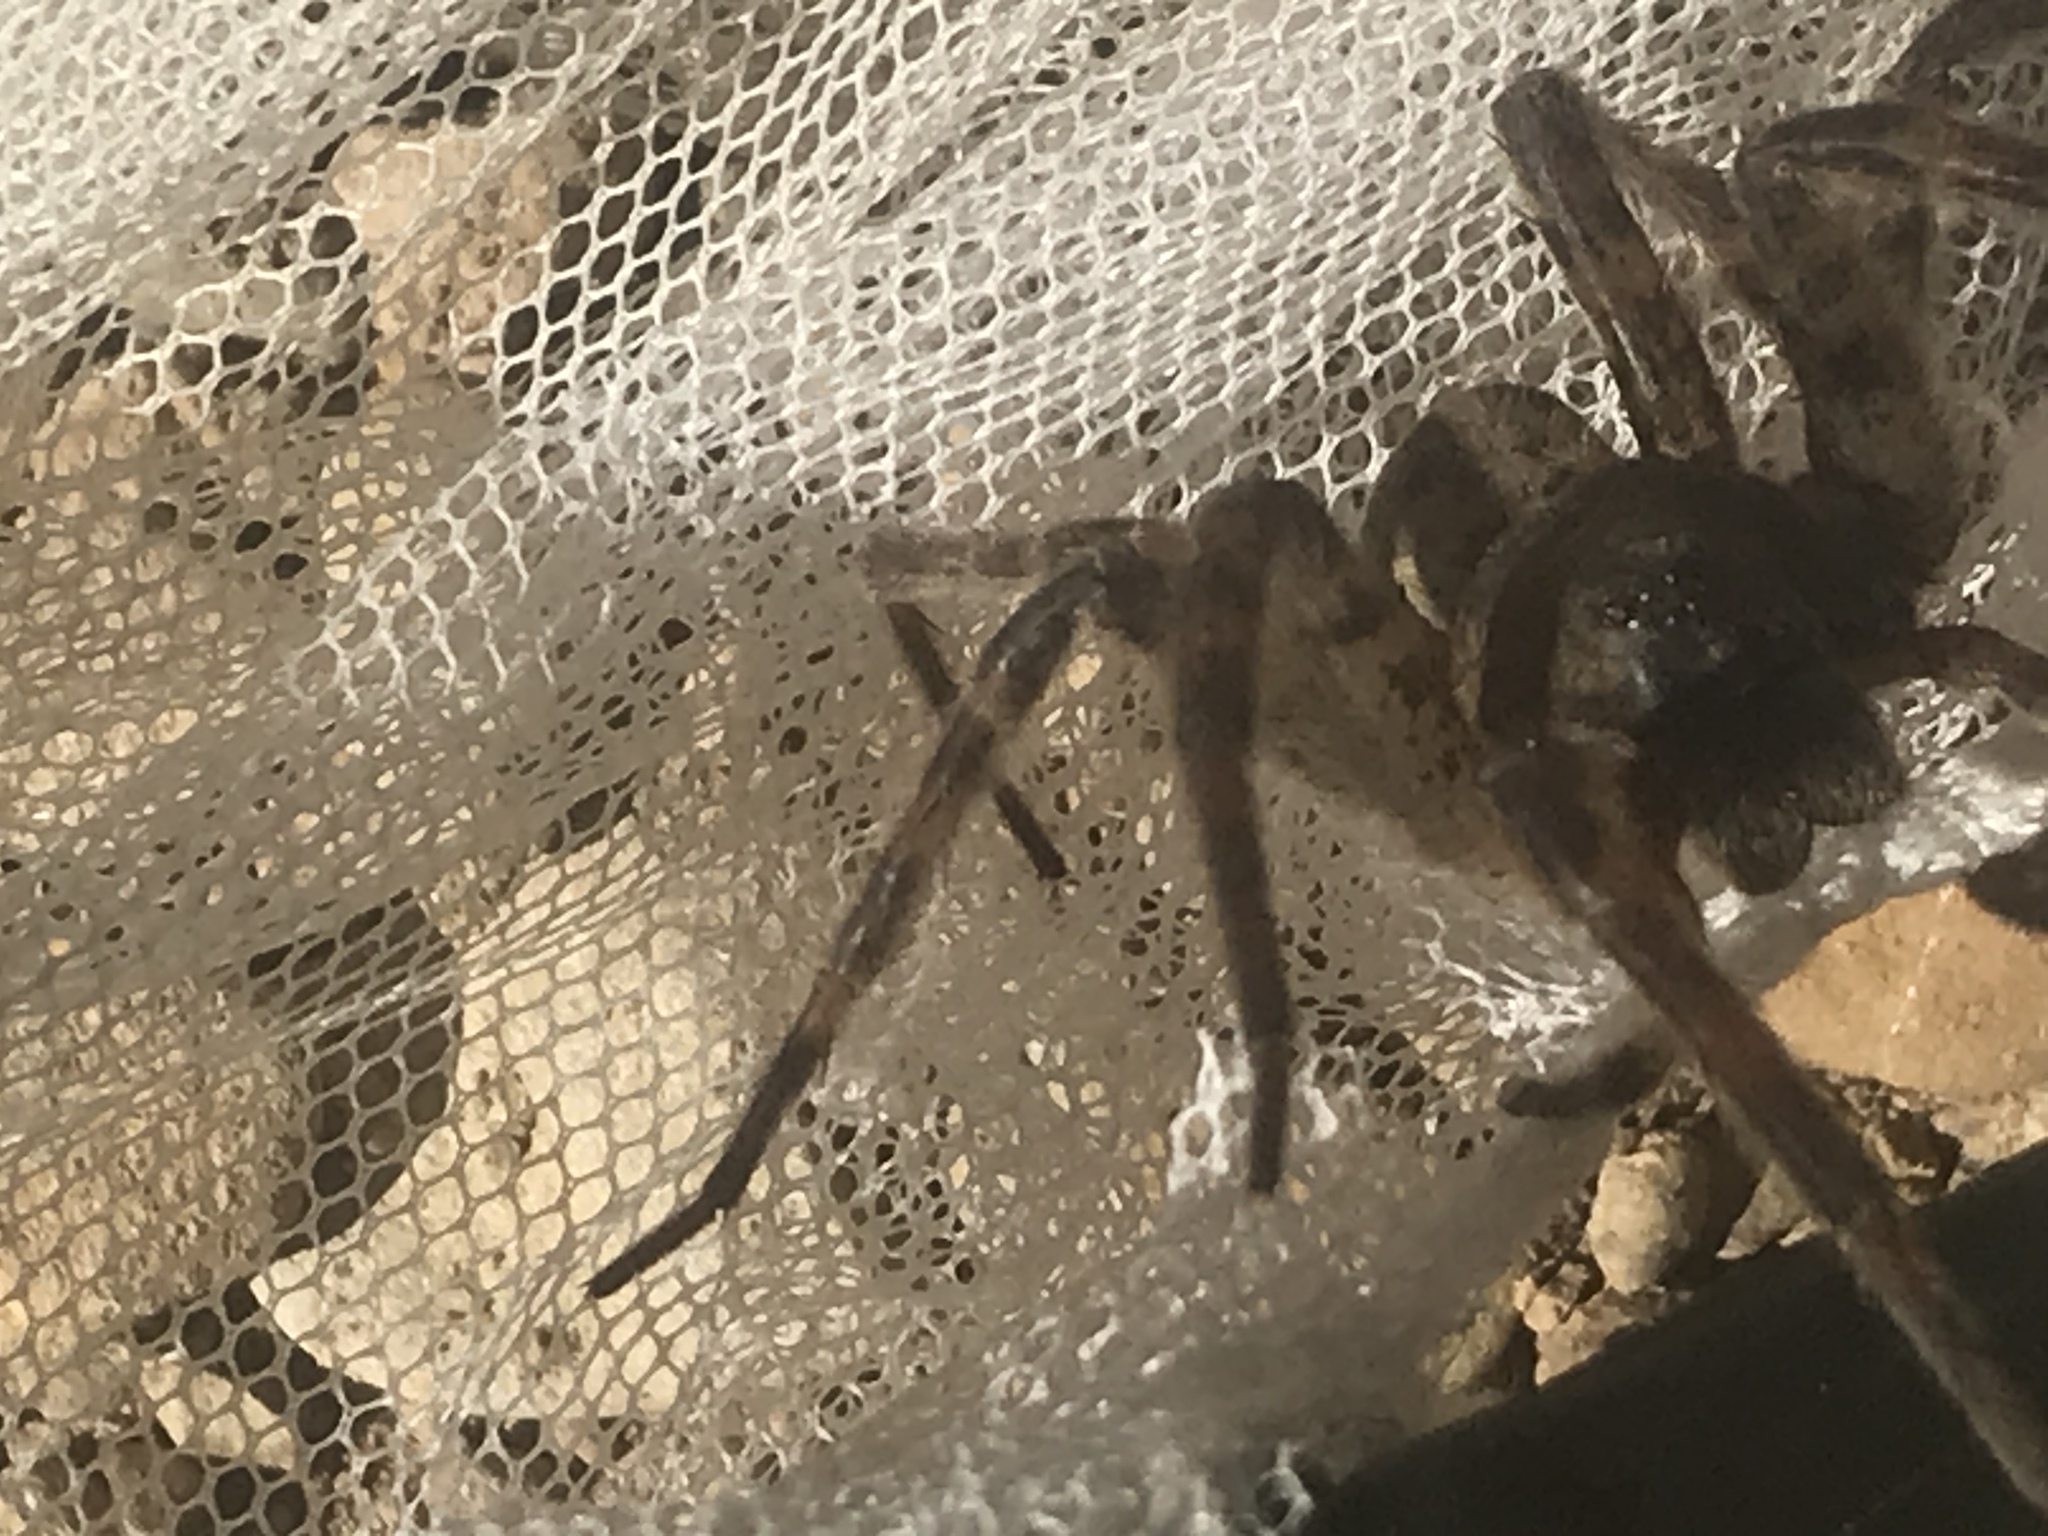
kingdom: Animalia
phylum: Arthropoda
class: Arachnida
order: Araneae
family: Pisauridae
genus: Dolomedes
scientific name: Dolomedes tenebrosus
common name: Dark fishing spider
